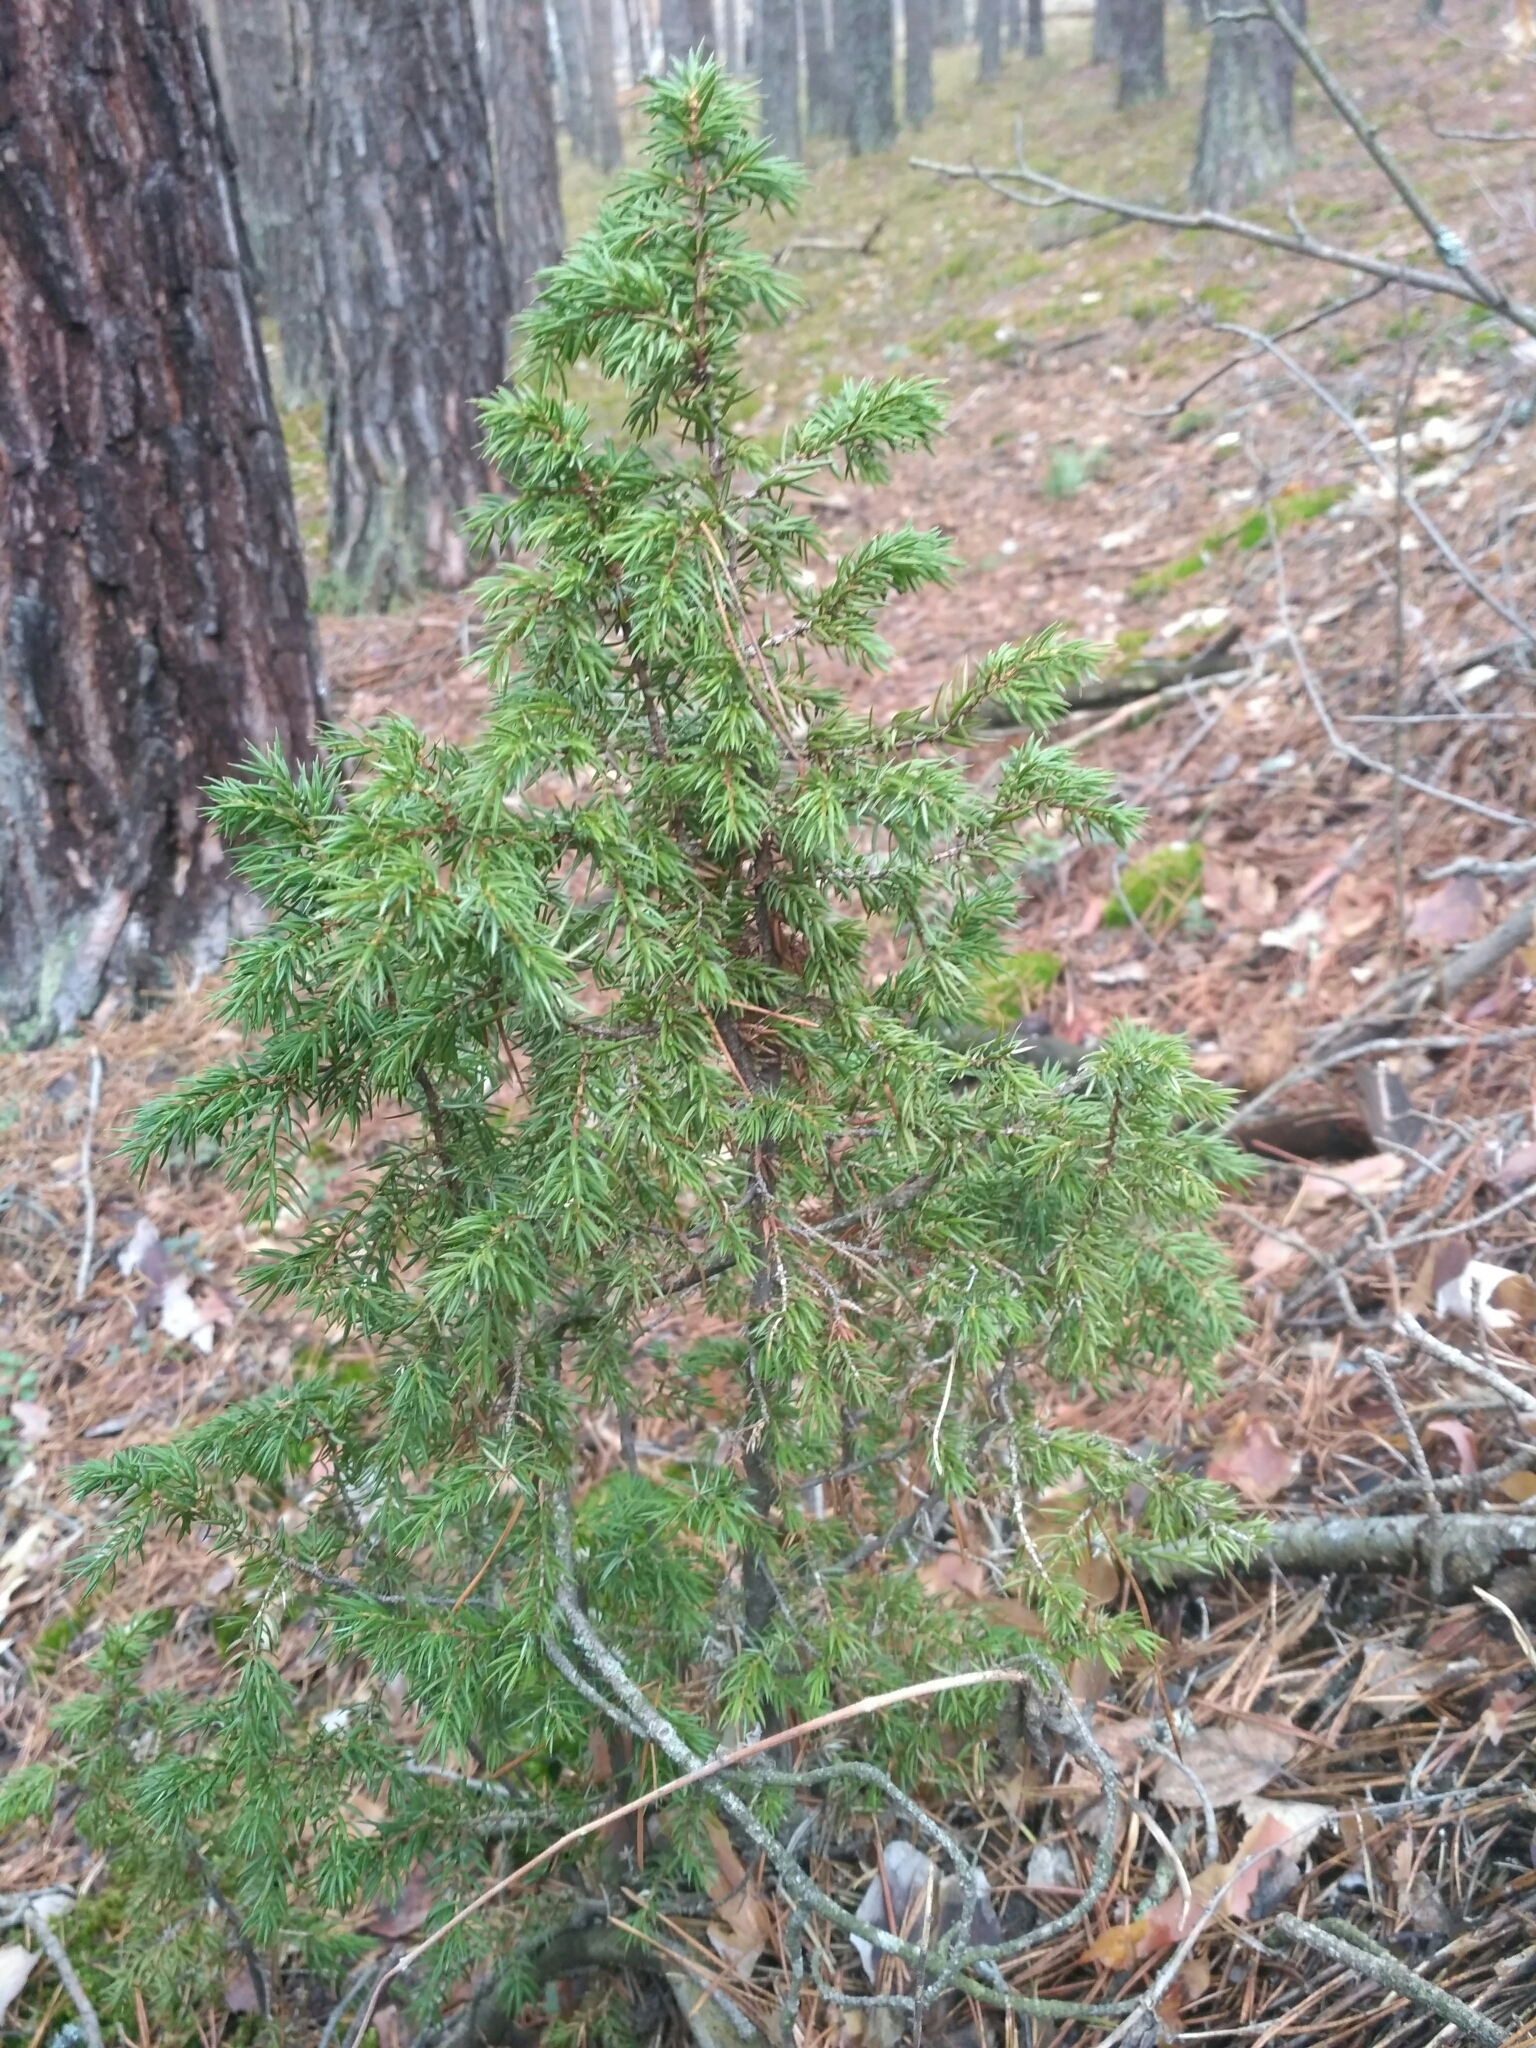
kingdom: Plantae
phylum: Tracheophyta
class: Pinopsida
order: Pinales
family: Cupressaceae
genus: Juniperus
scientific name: Juniperus communis
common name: Common juniper
